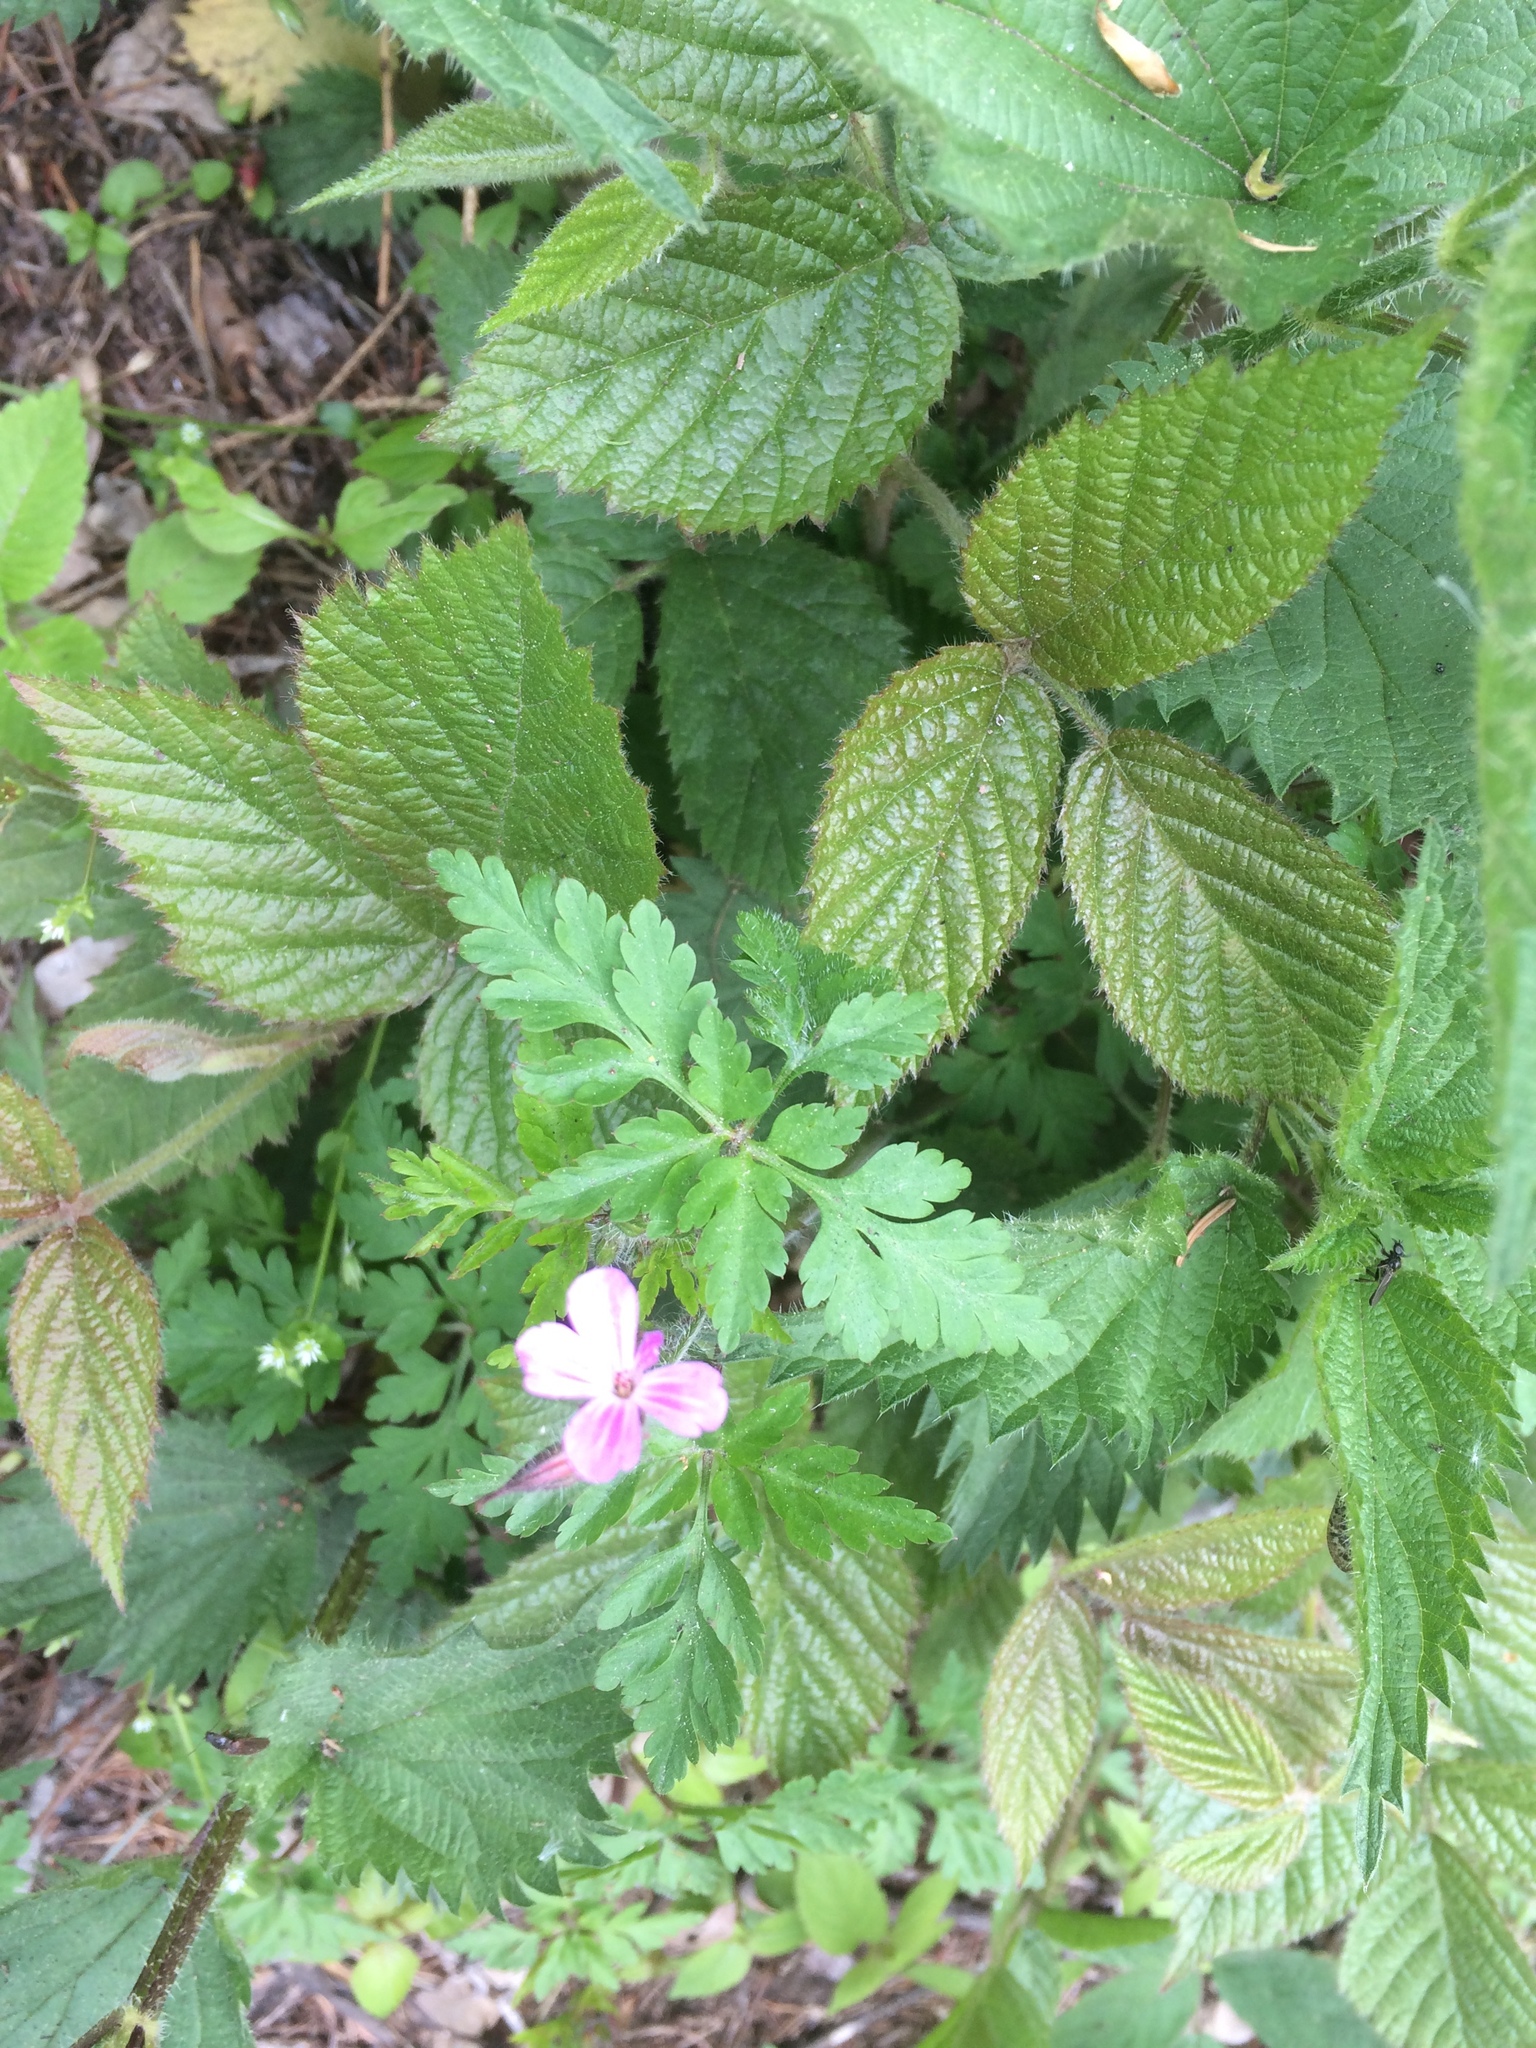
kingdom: Plantae
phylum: Tracheophyta
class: Magnoliopsida
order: Geraniales
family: Geraniaceae
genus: Geranium
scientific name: Geranium robertianum
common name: Herb-robert
